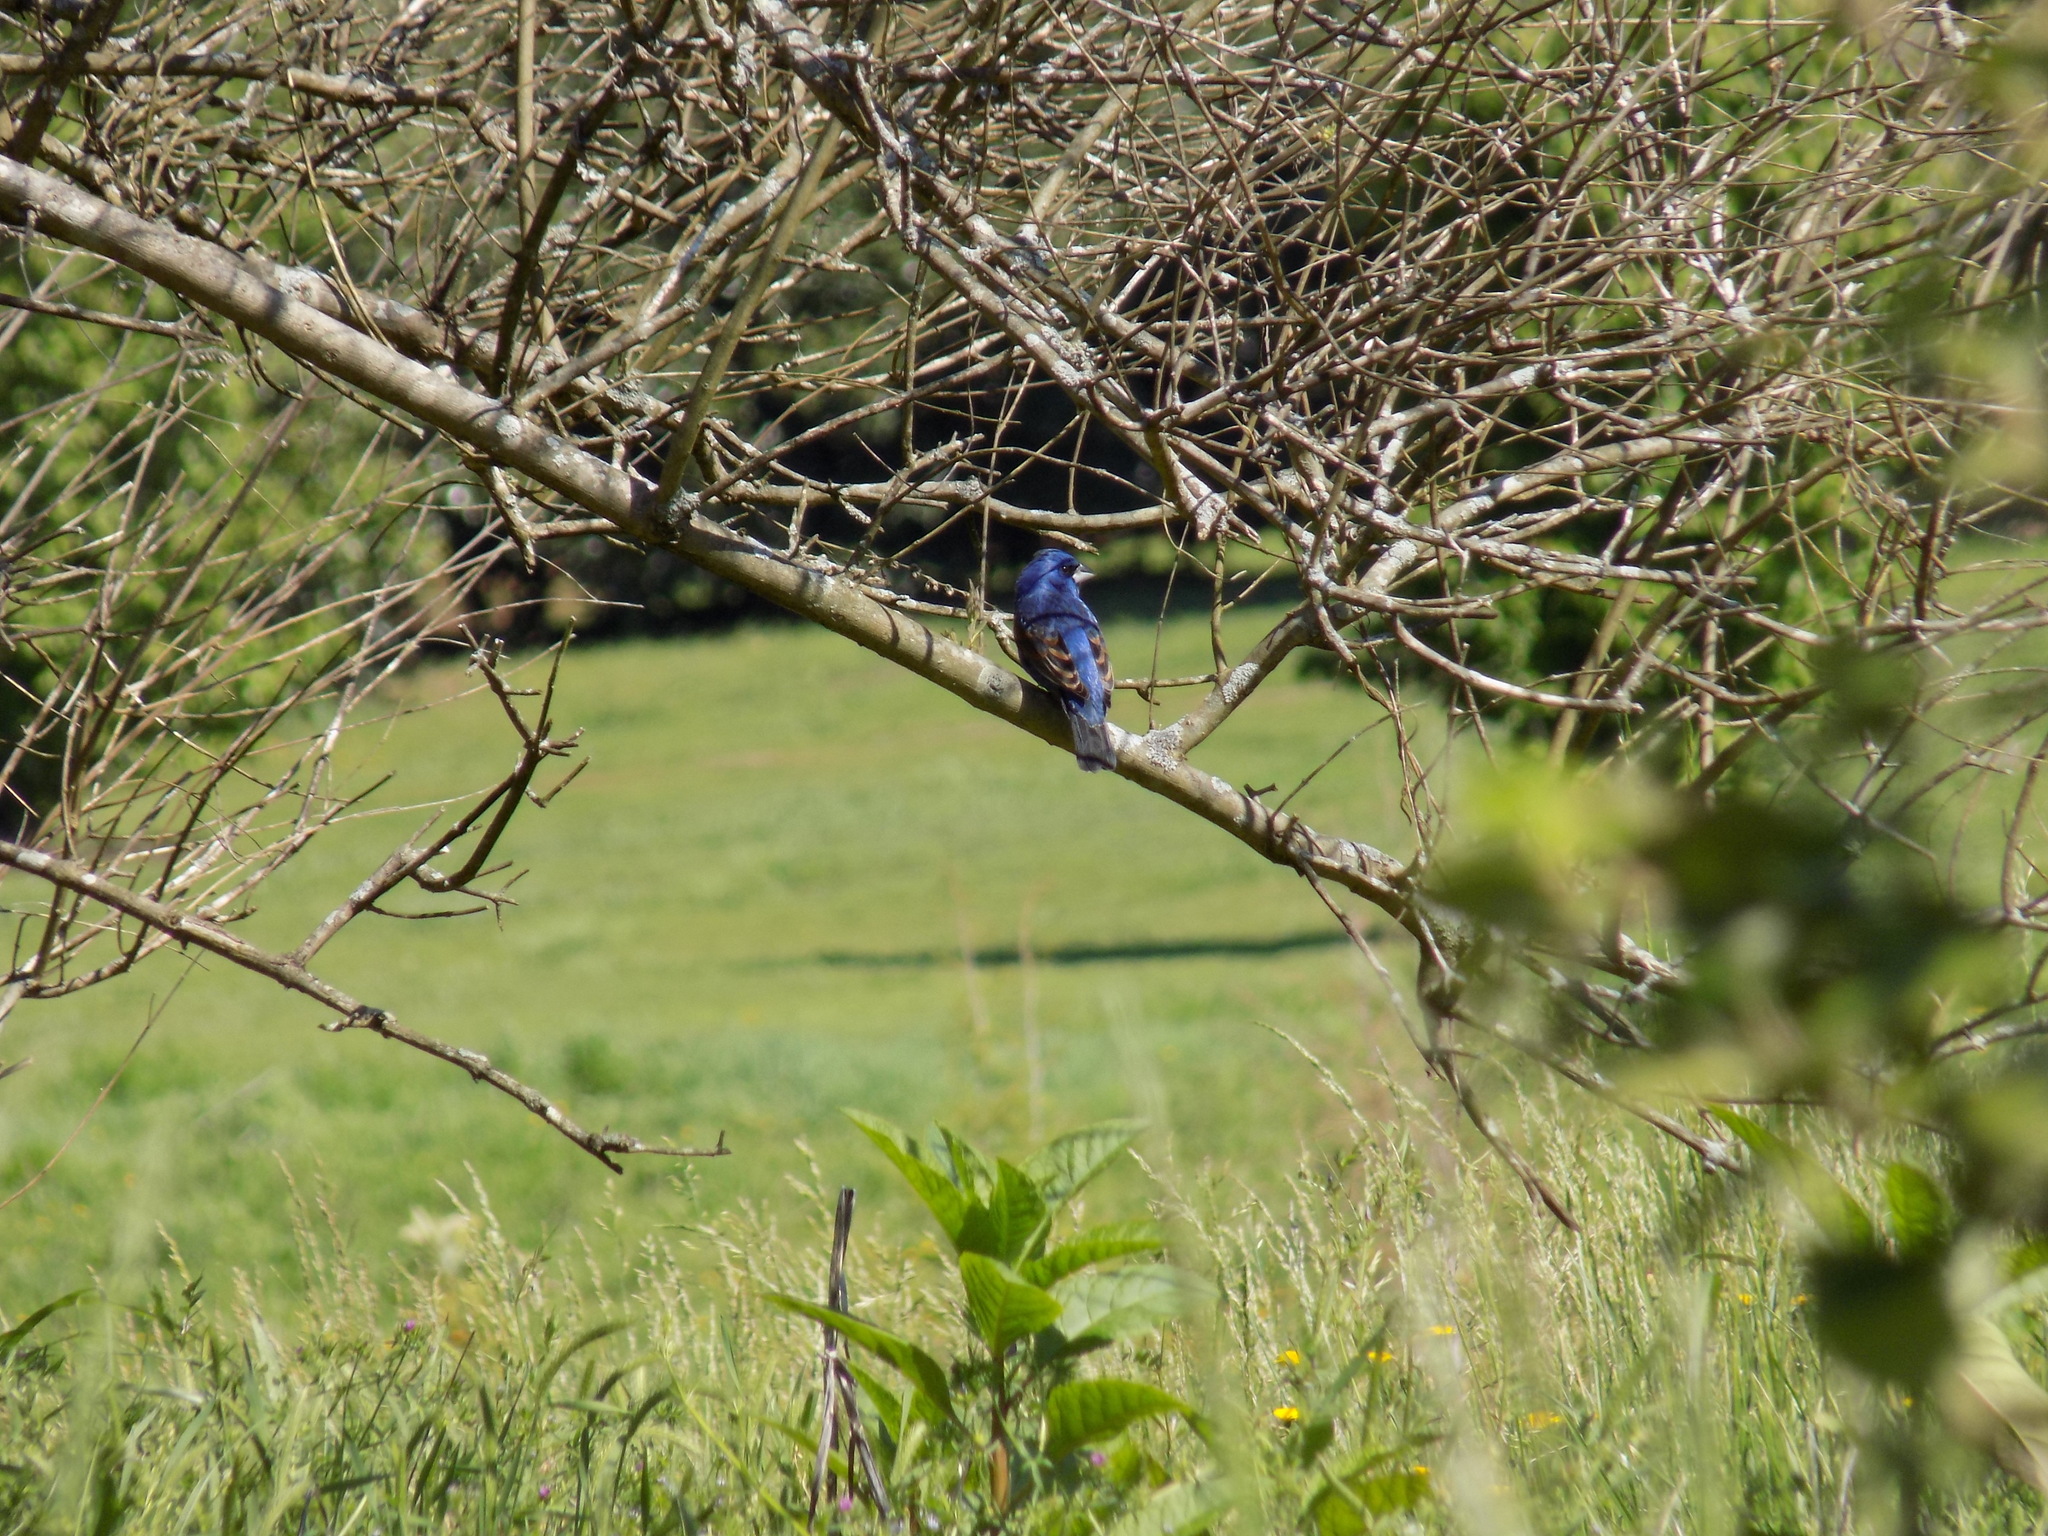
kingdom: Animalia
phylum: Chordata
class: Aves
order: Passeriformes
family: Cardinalidae
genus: Passerina
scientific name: Passerina caerulea
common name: Blue grosbeak
